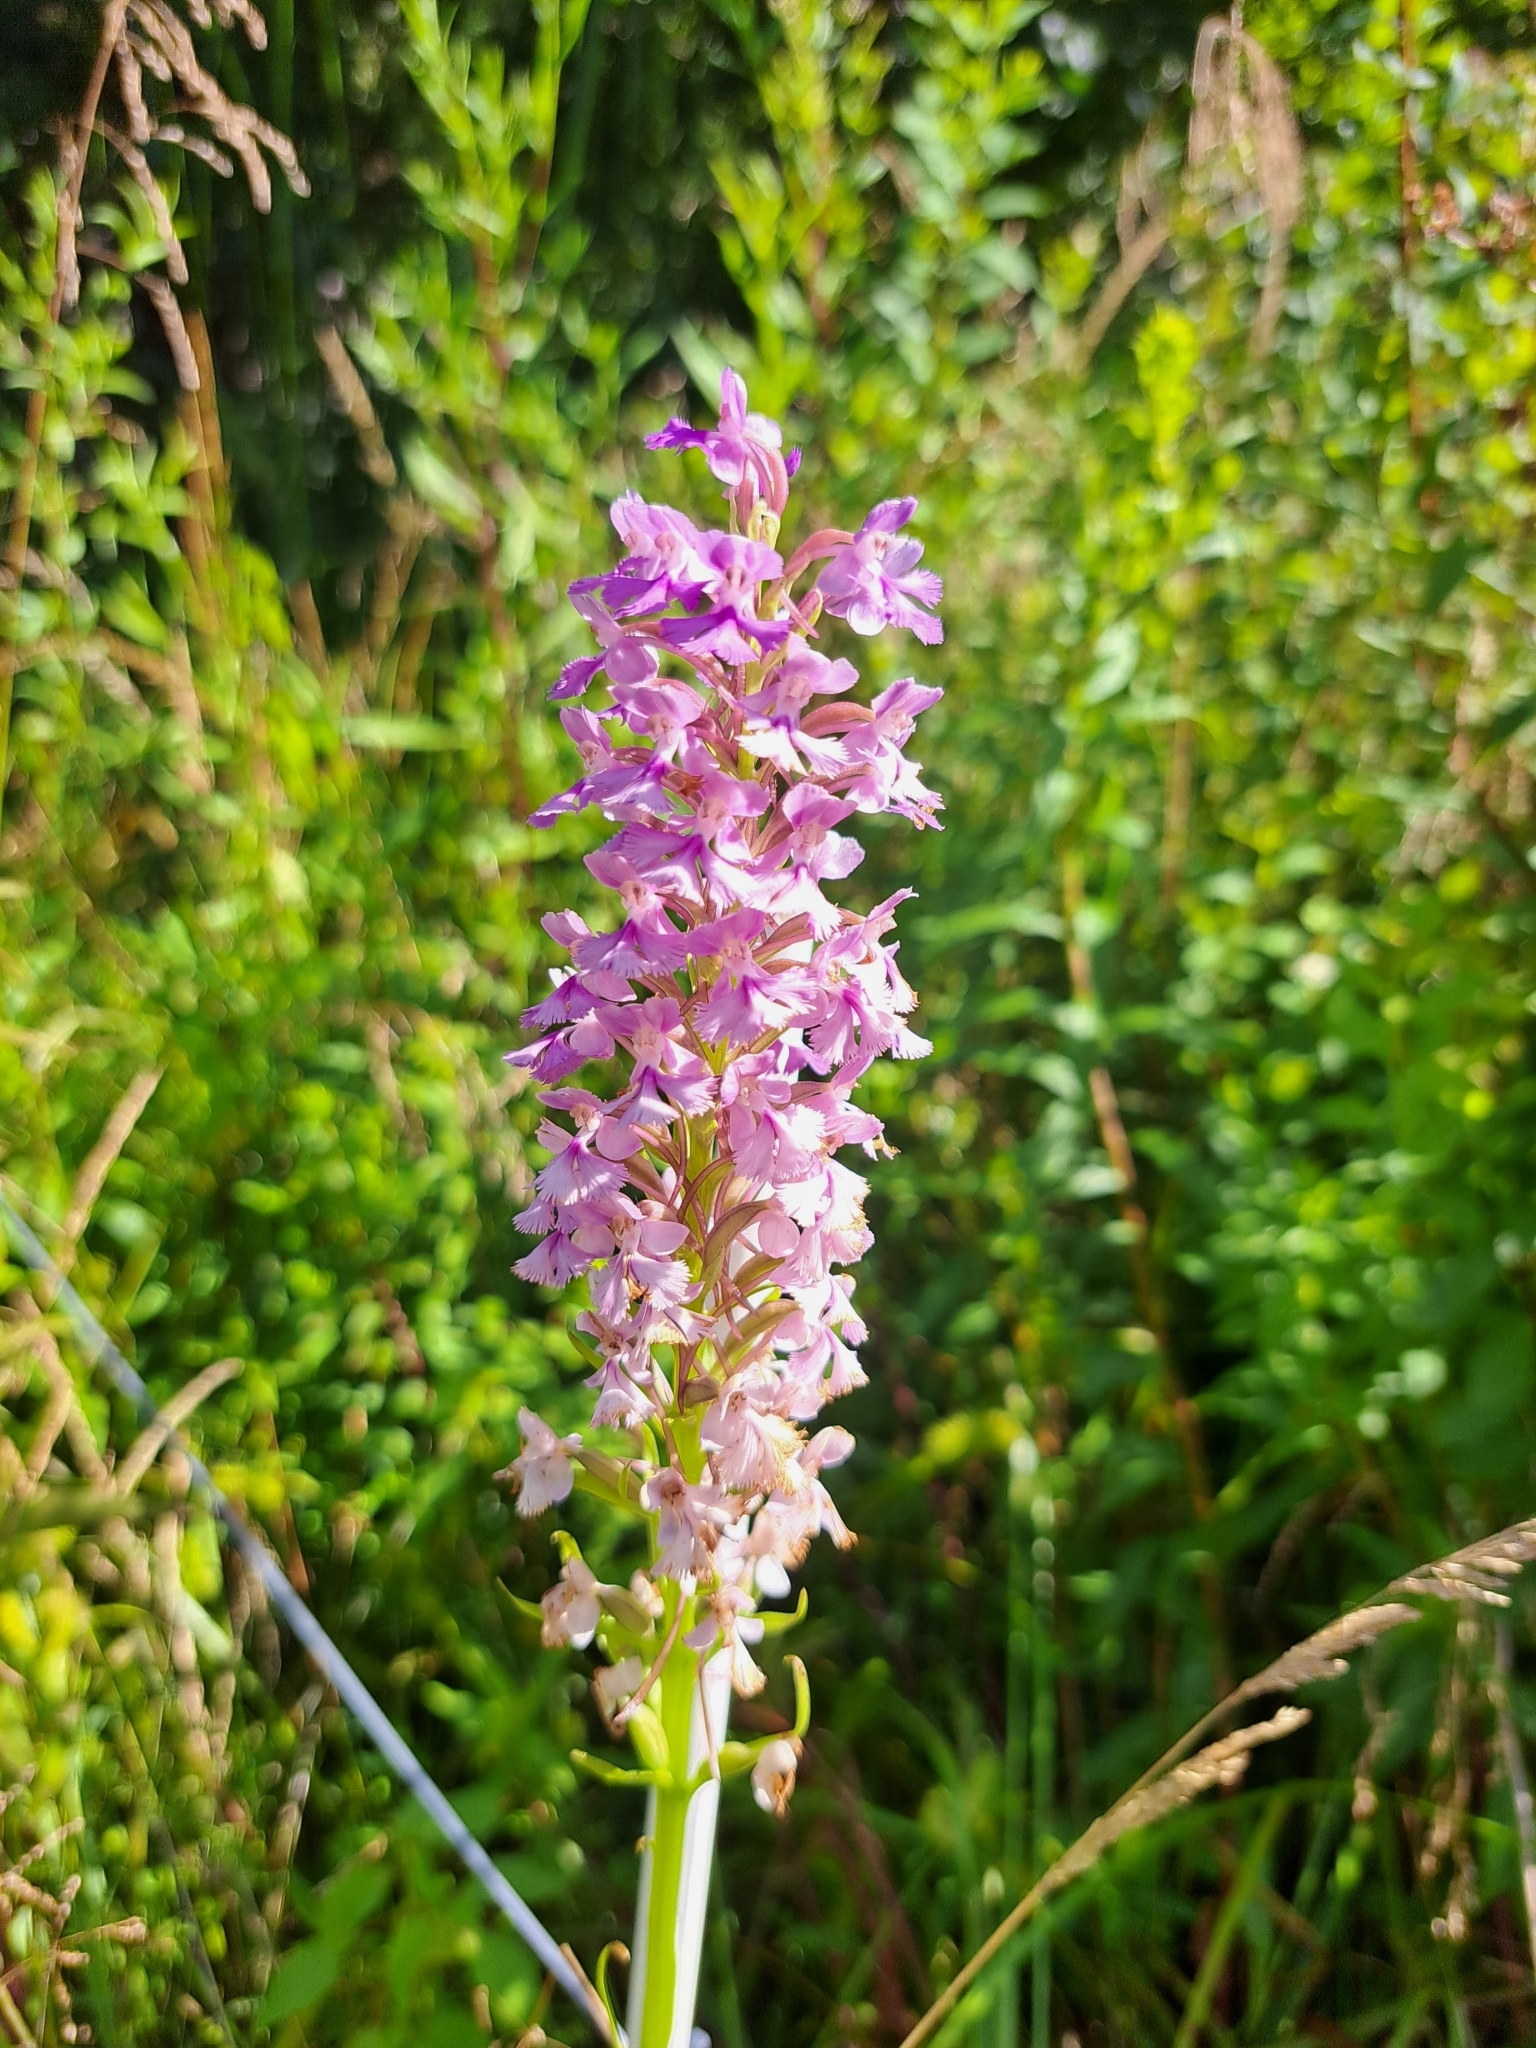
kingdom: Plantae
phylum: Tracheophyta
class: Liliopsida
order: Asparagales
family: Orchidaceae
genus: Platanthera
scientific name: Platanthera psycodes
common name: Lesser purple fringed orchid
